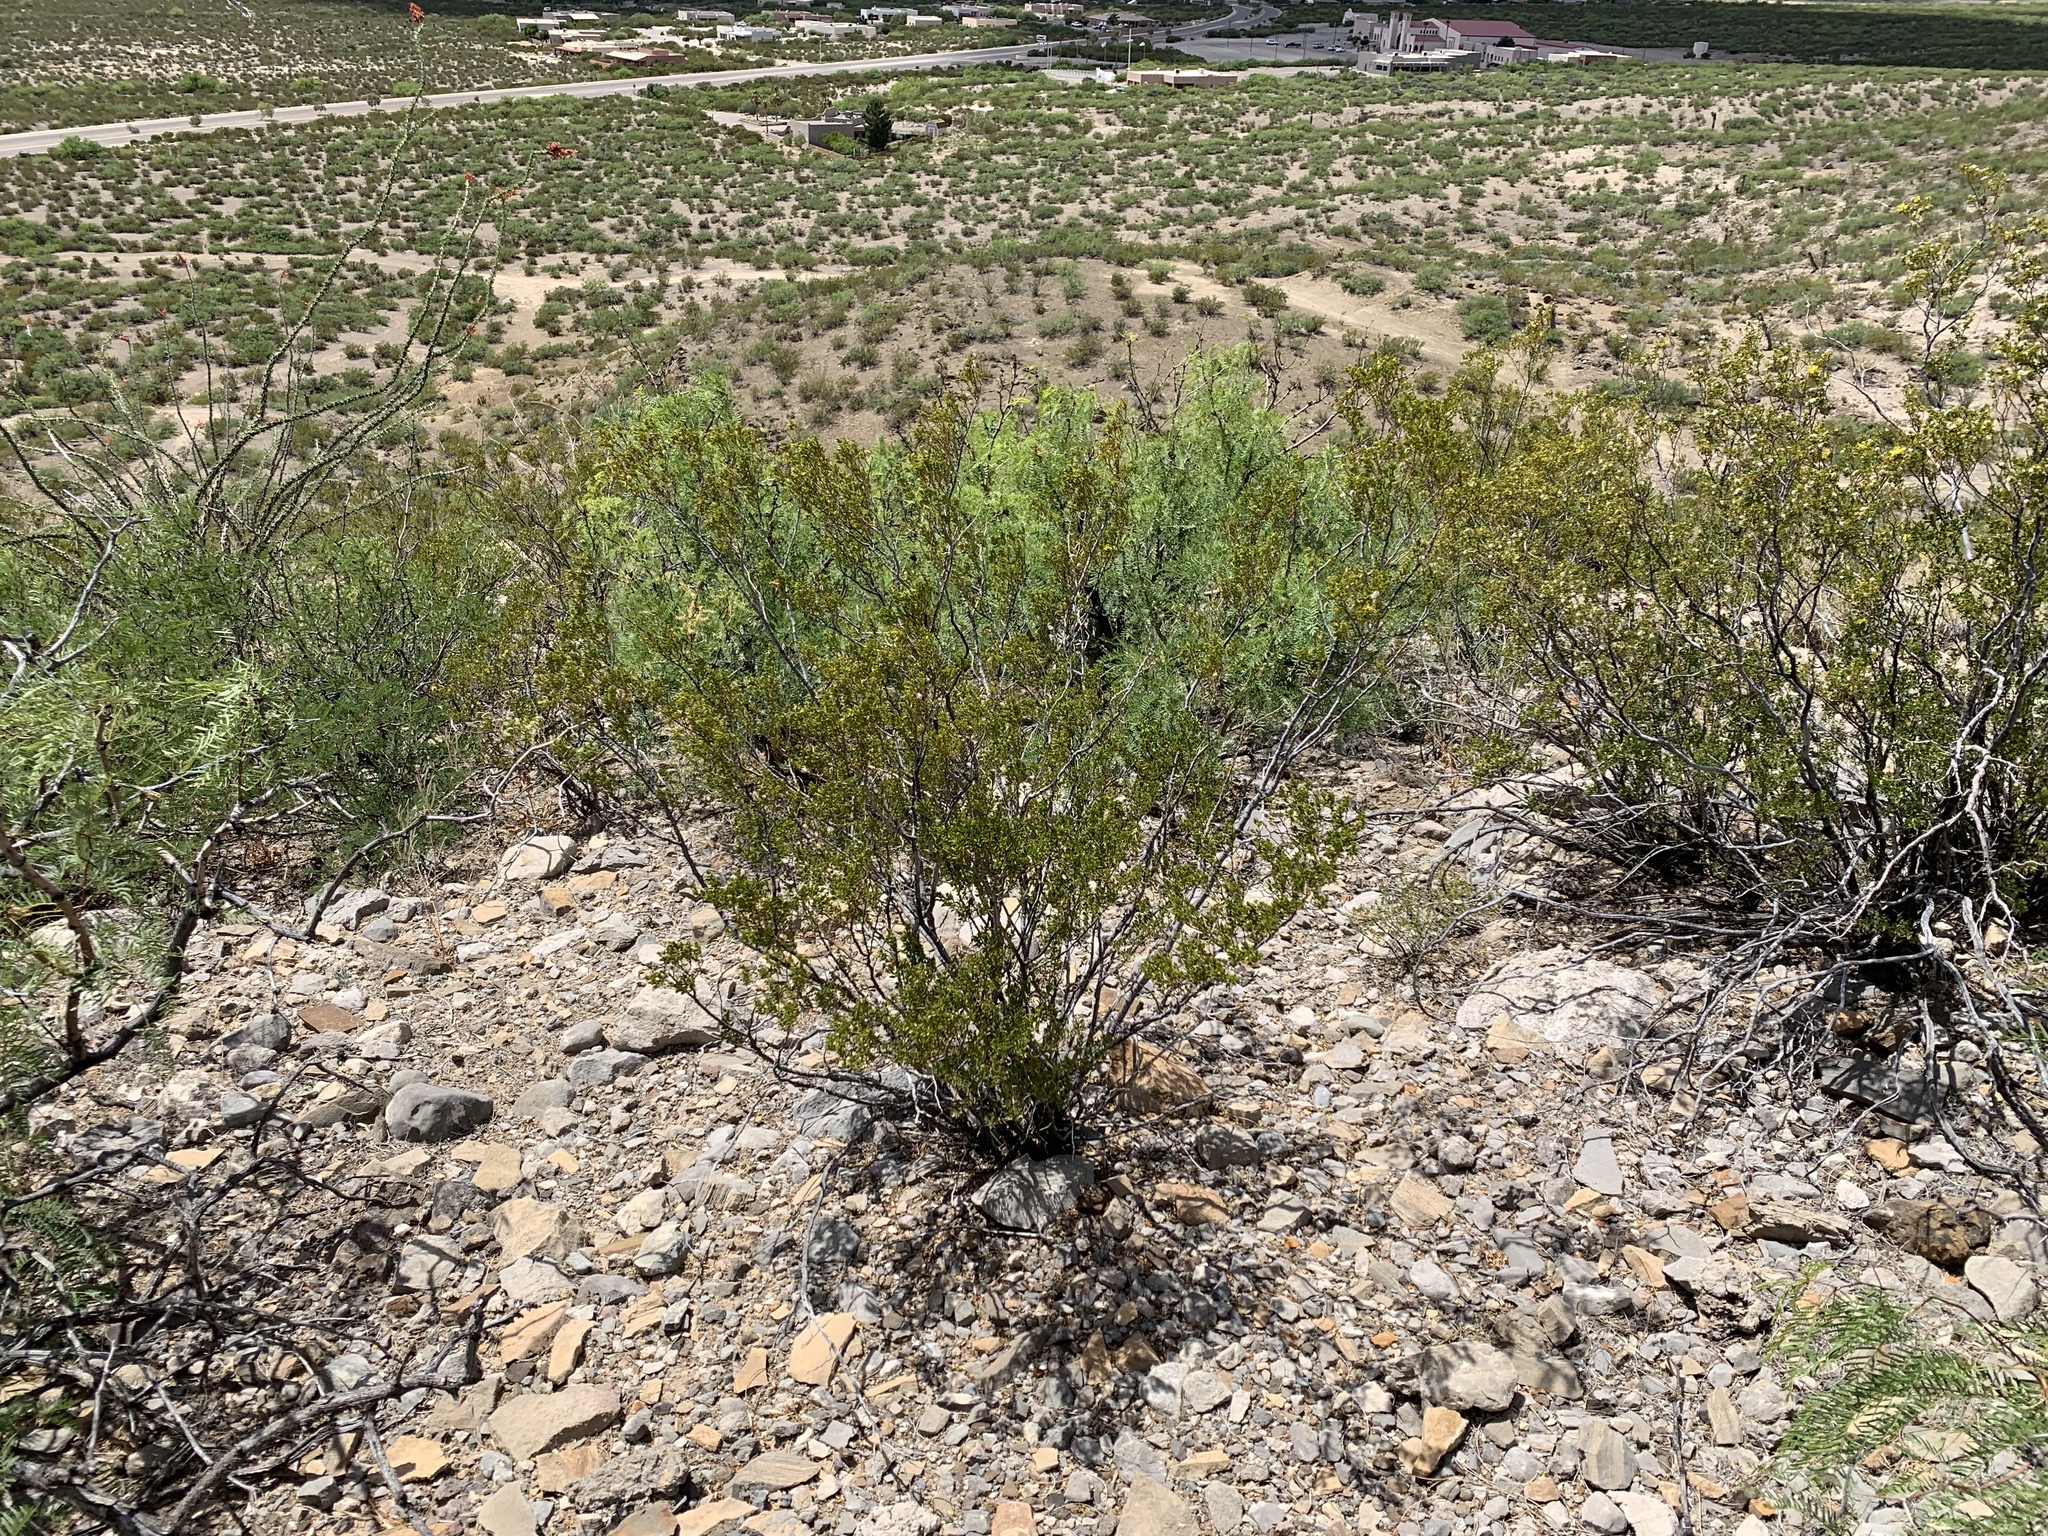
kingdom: Plantae
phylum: Tracheophyta
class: Magnoliopsida
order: Zygophyllales
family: Zygophyllaceae
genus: Larrea
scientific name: Larrea tridentata
